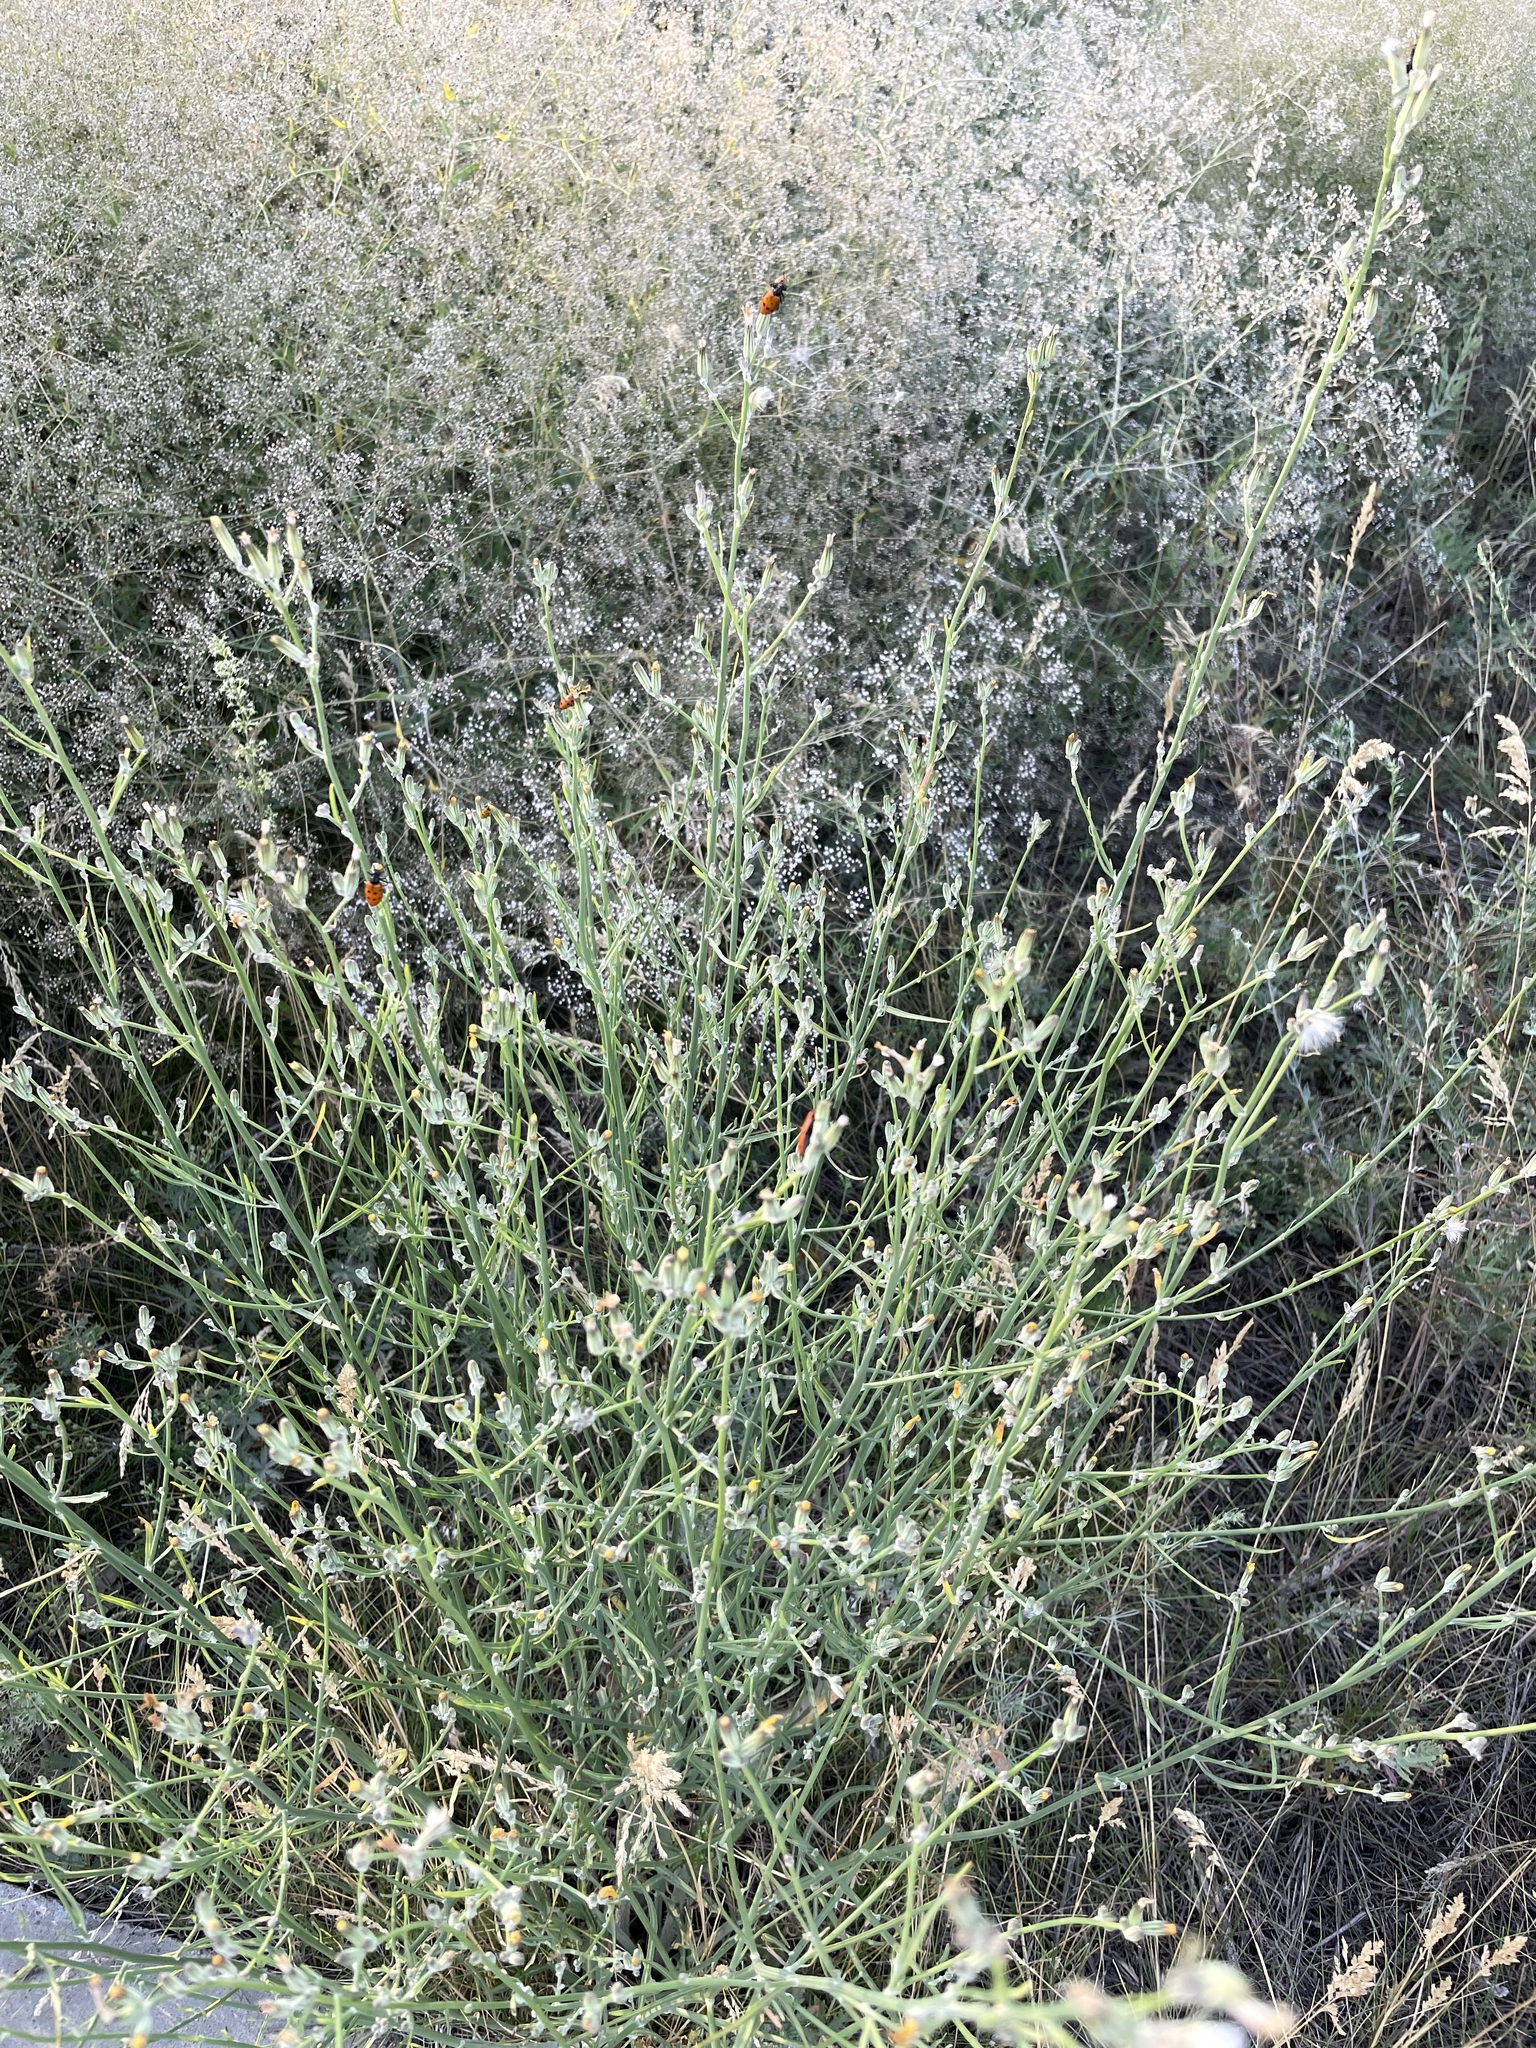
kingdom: Plantae
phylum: Tracheophyta
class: Magnoliopsida
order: Asterales
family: Asteraceae
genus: Chondrilla
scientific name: Chondrilla juncea
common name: Skeleton weed
